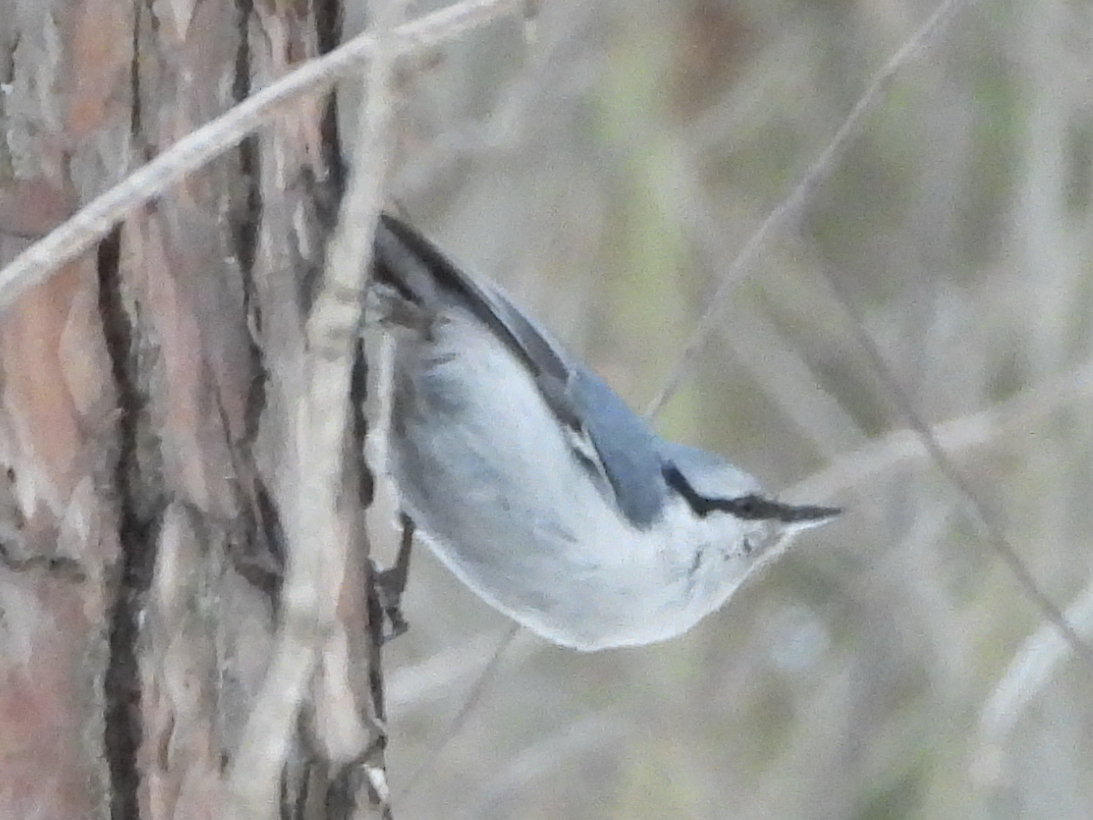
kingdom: Animalia
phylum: Chordata
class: Aves
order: Passeriformes
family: Sittidae
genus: Sitta
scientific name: Sitta europaea
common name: Eurasian nuthatch
